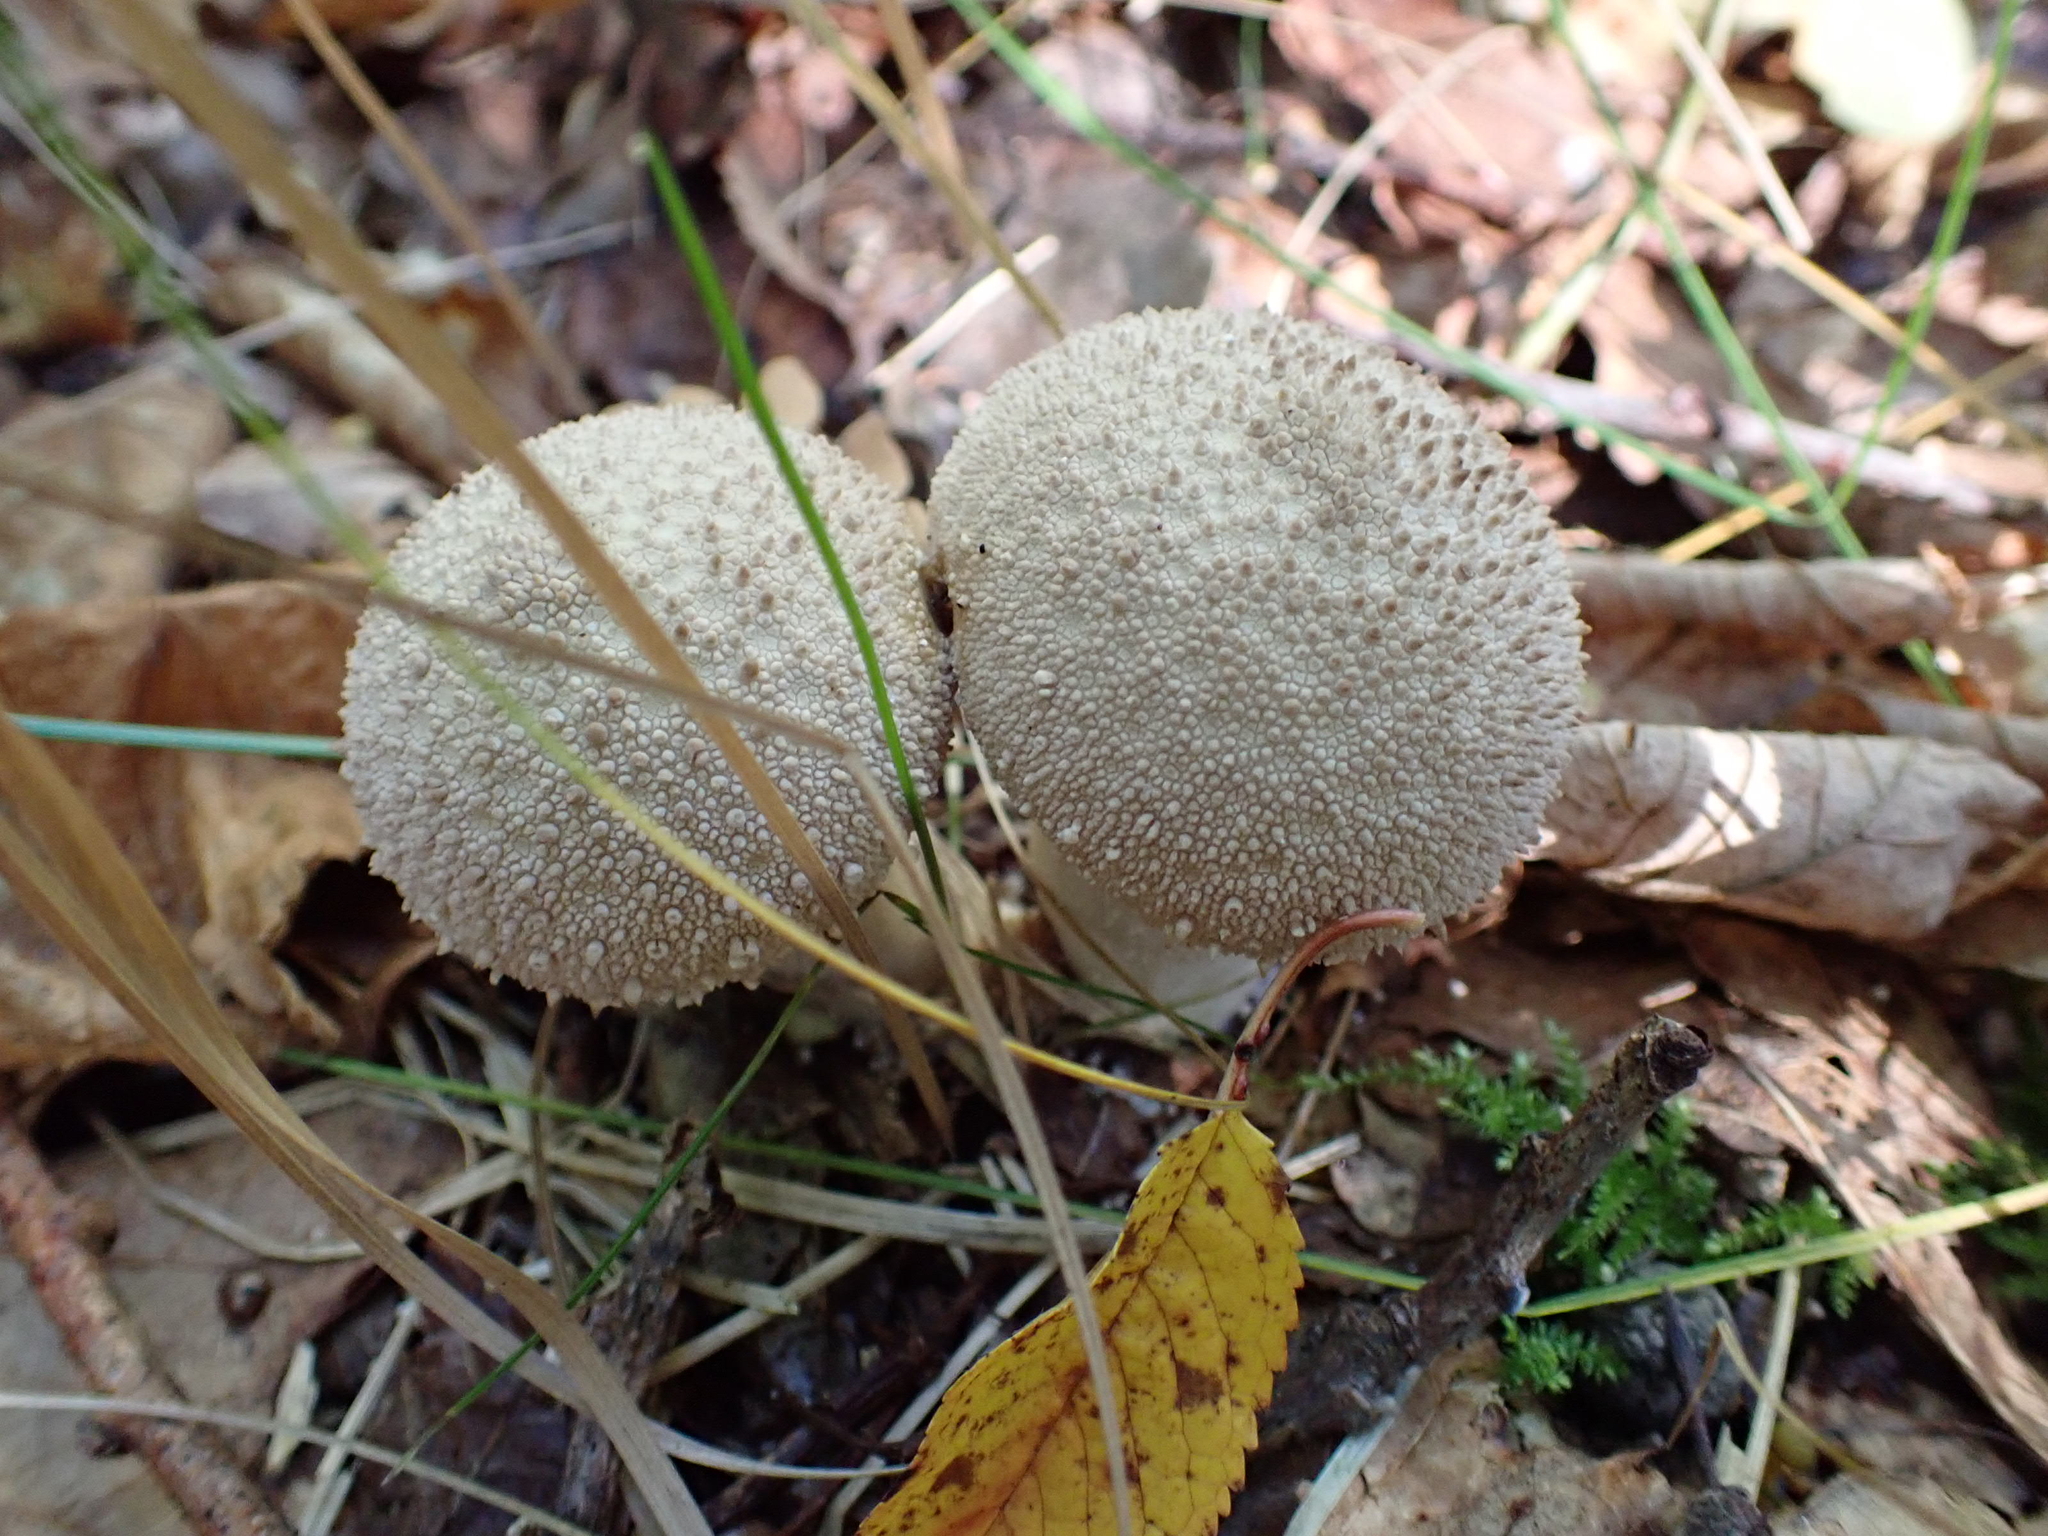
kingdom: Fungi
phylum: Basidiomycota
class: Agaricomycetes
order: Agaricales
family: Lycoperdaceae
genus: Lycoperdon
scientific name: Lycoperdon perlatum
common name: Common puffball
